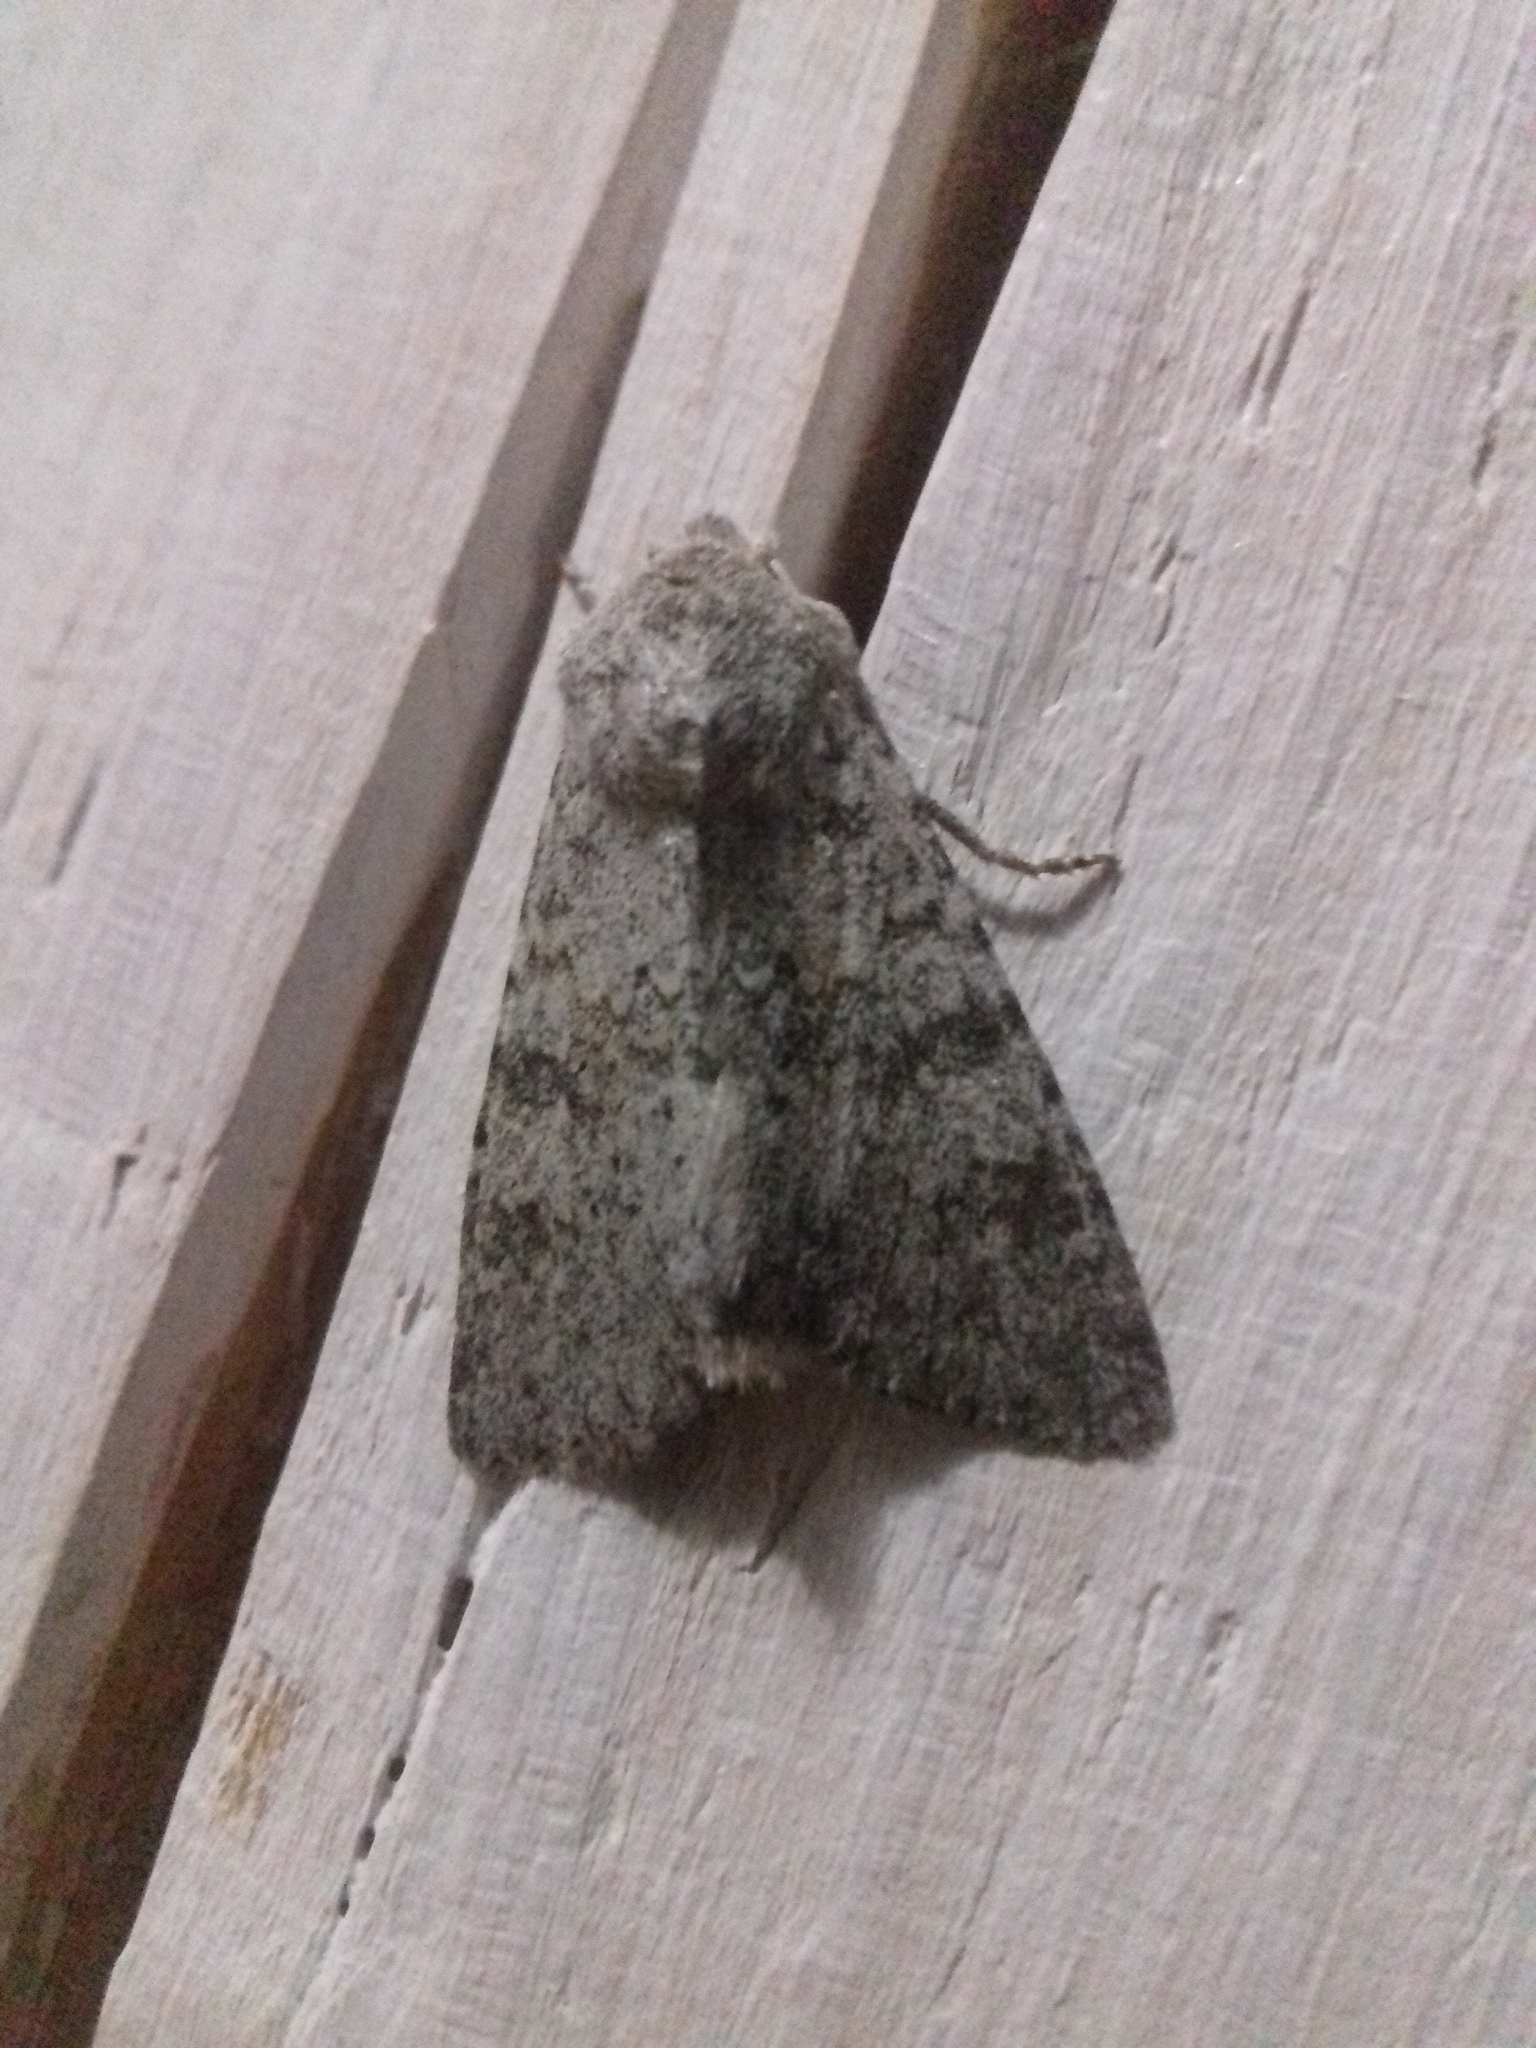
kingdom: Animalia
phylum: Arthropoda
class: Insecta
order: Lepidoptera
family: Noctuidae
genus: Polymixis
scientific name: Polymixis rufocincta
